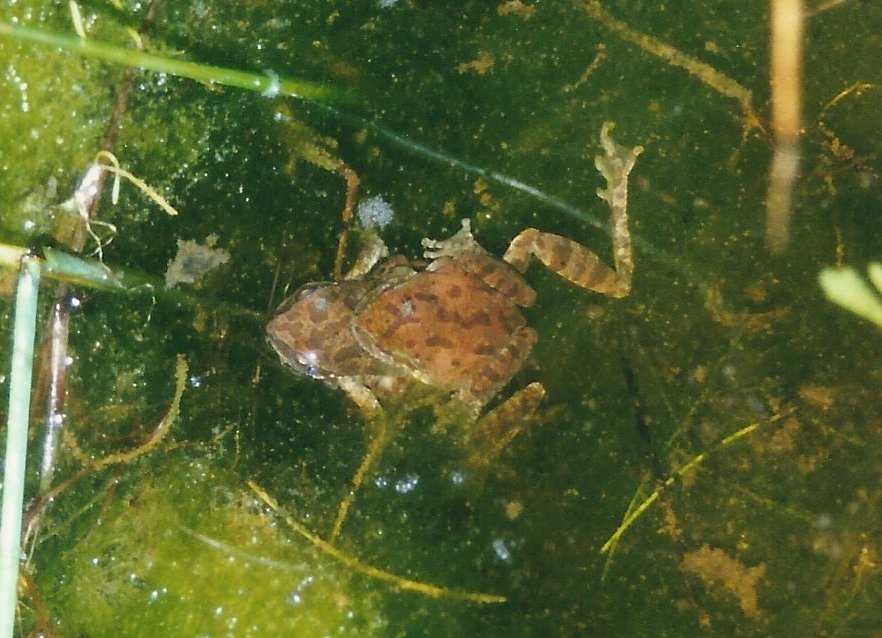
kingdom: Animalia
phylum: Chordata
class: Amphibia
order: Anura
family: Hylidae
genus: Pseudacris
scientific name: Pseudacris regilla
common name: Pacific chorus frog
